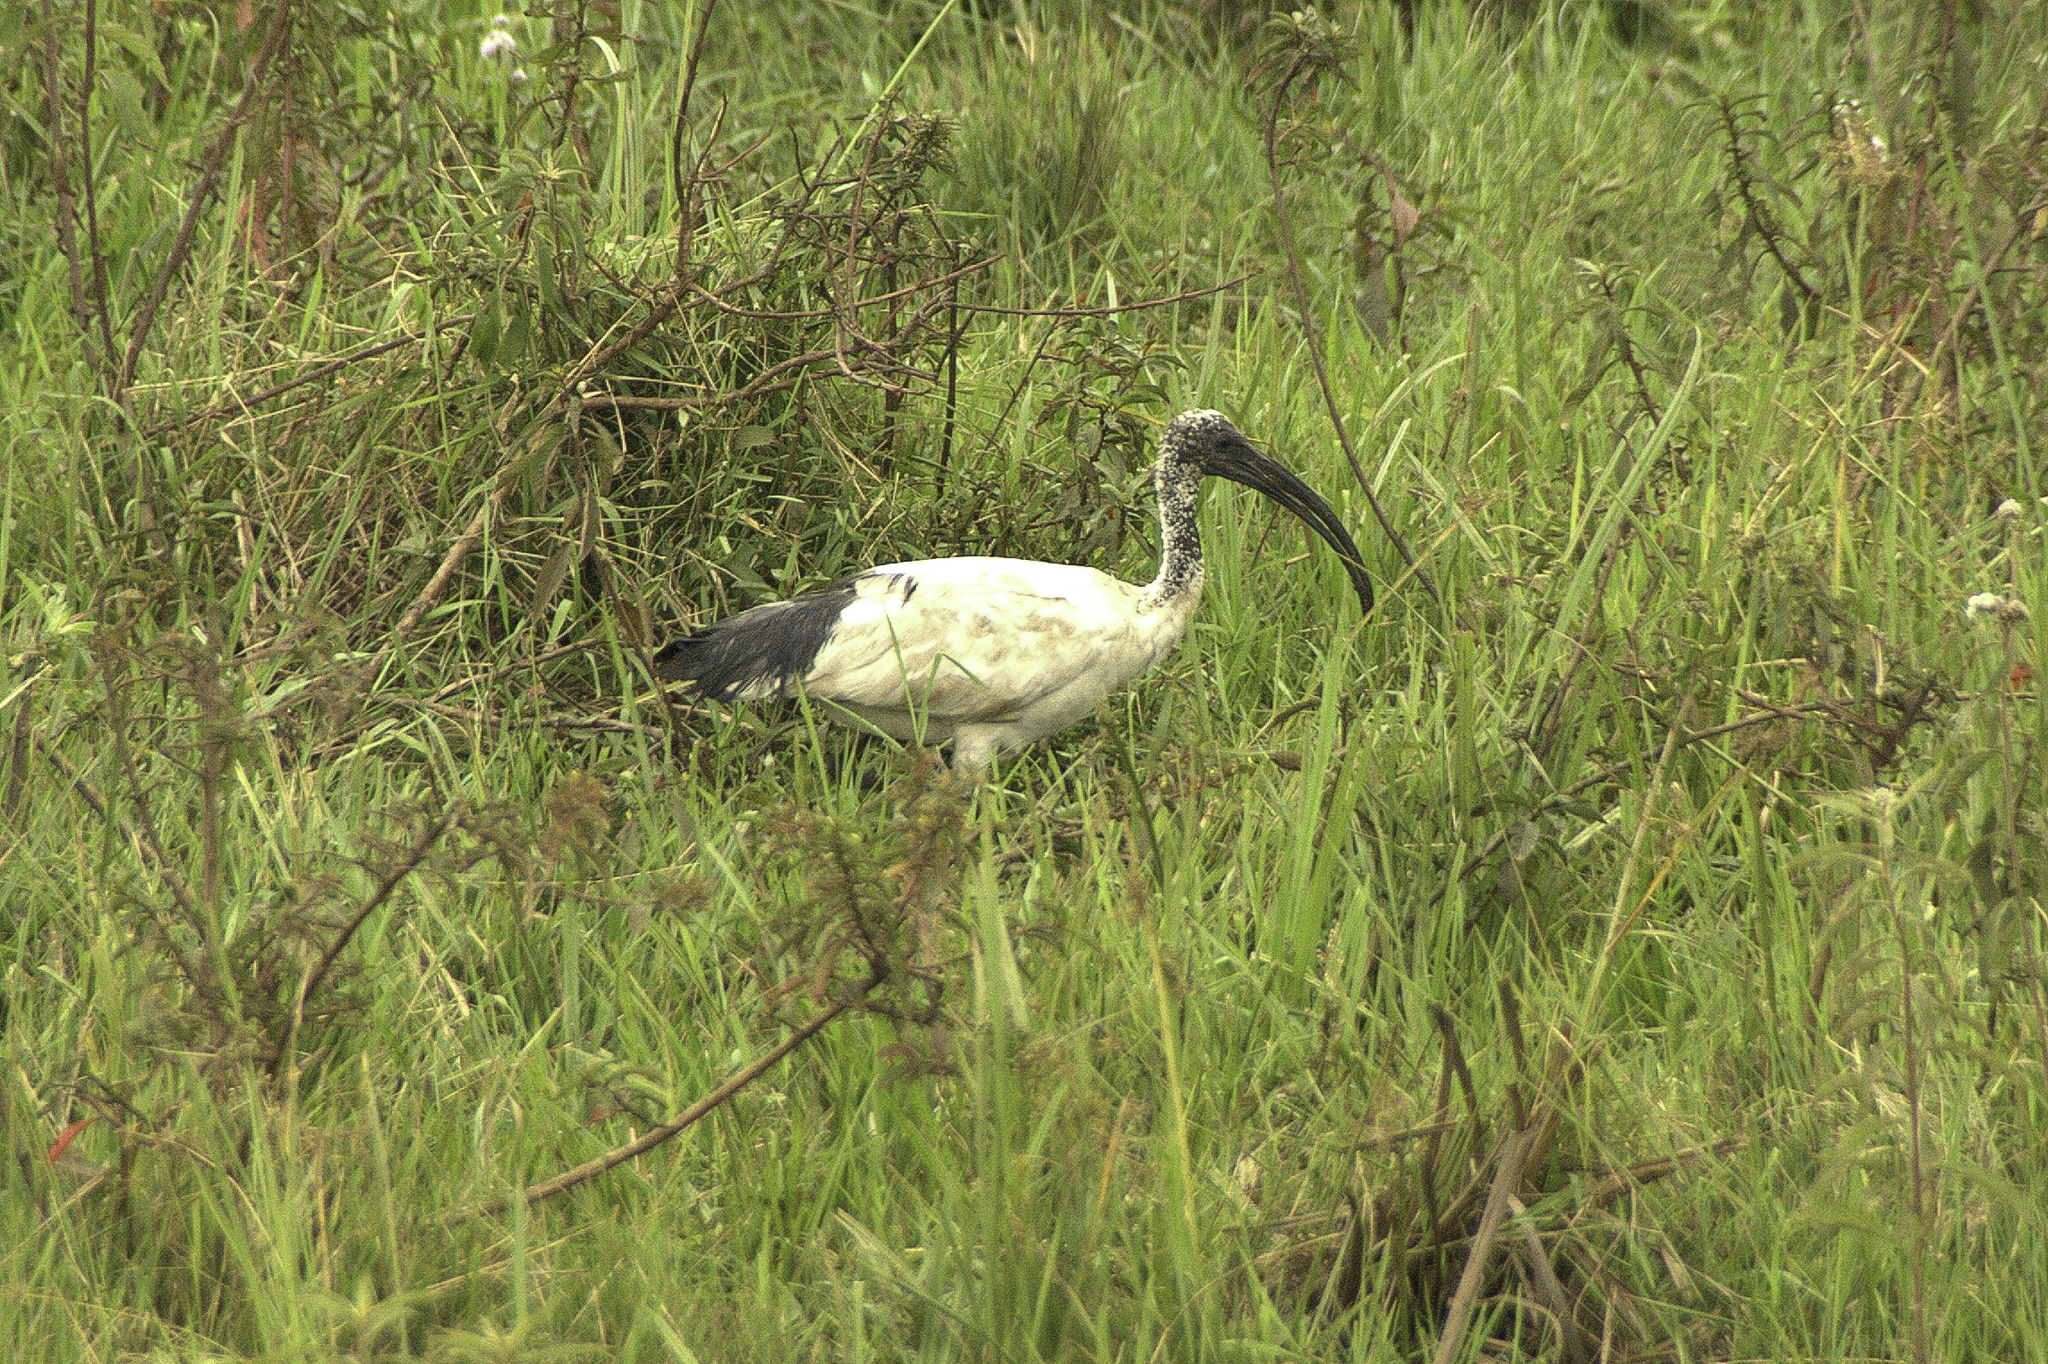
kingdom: Animalia
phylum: Chordata
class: Aves
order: Pelecaniformes
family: Threskiornithidae
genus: Threskiornis
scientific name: Threskiornis aethiopicus
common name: Sacred ibis
